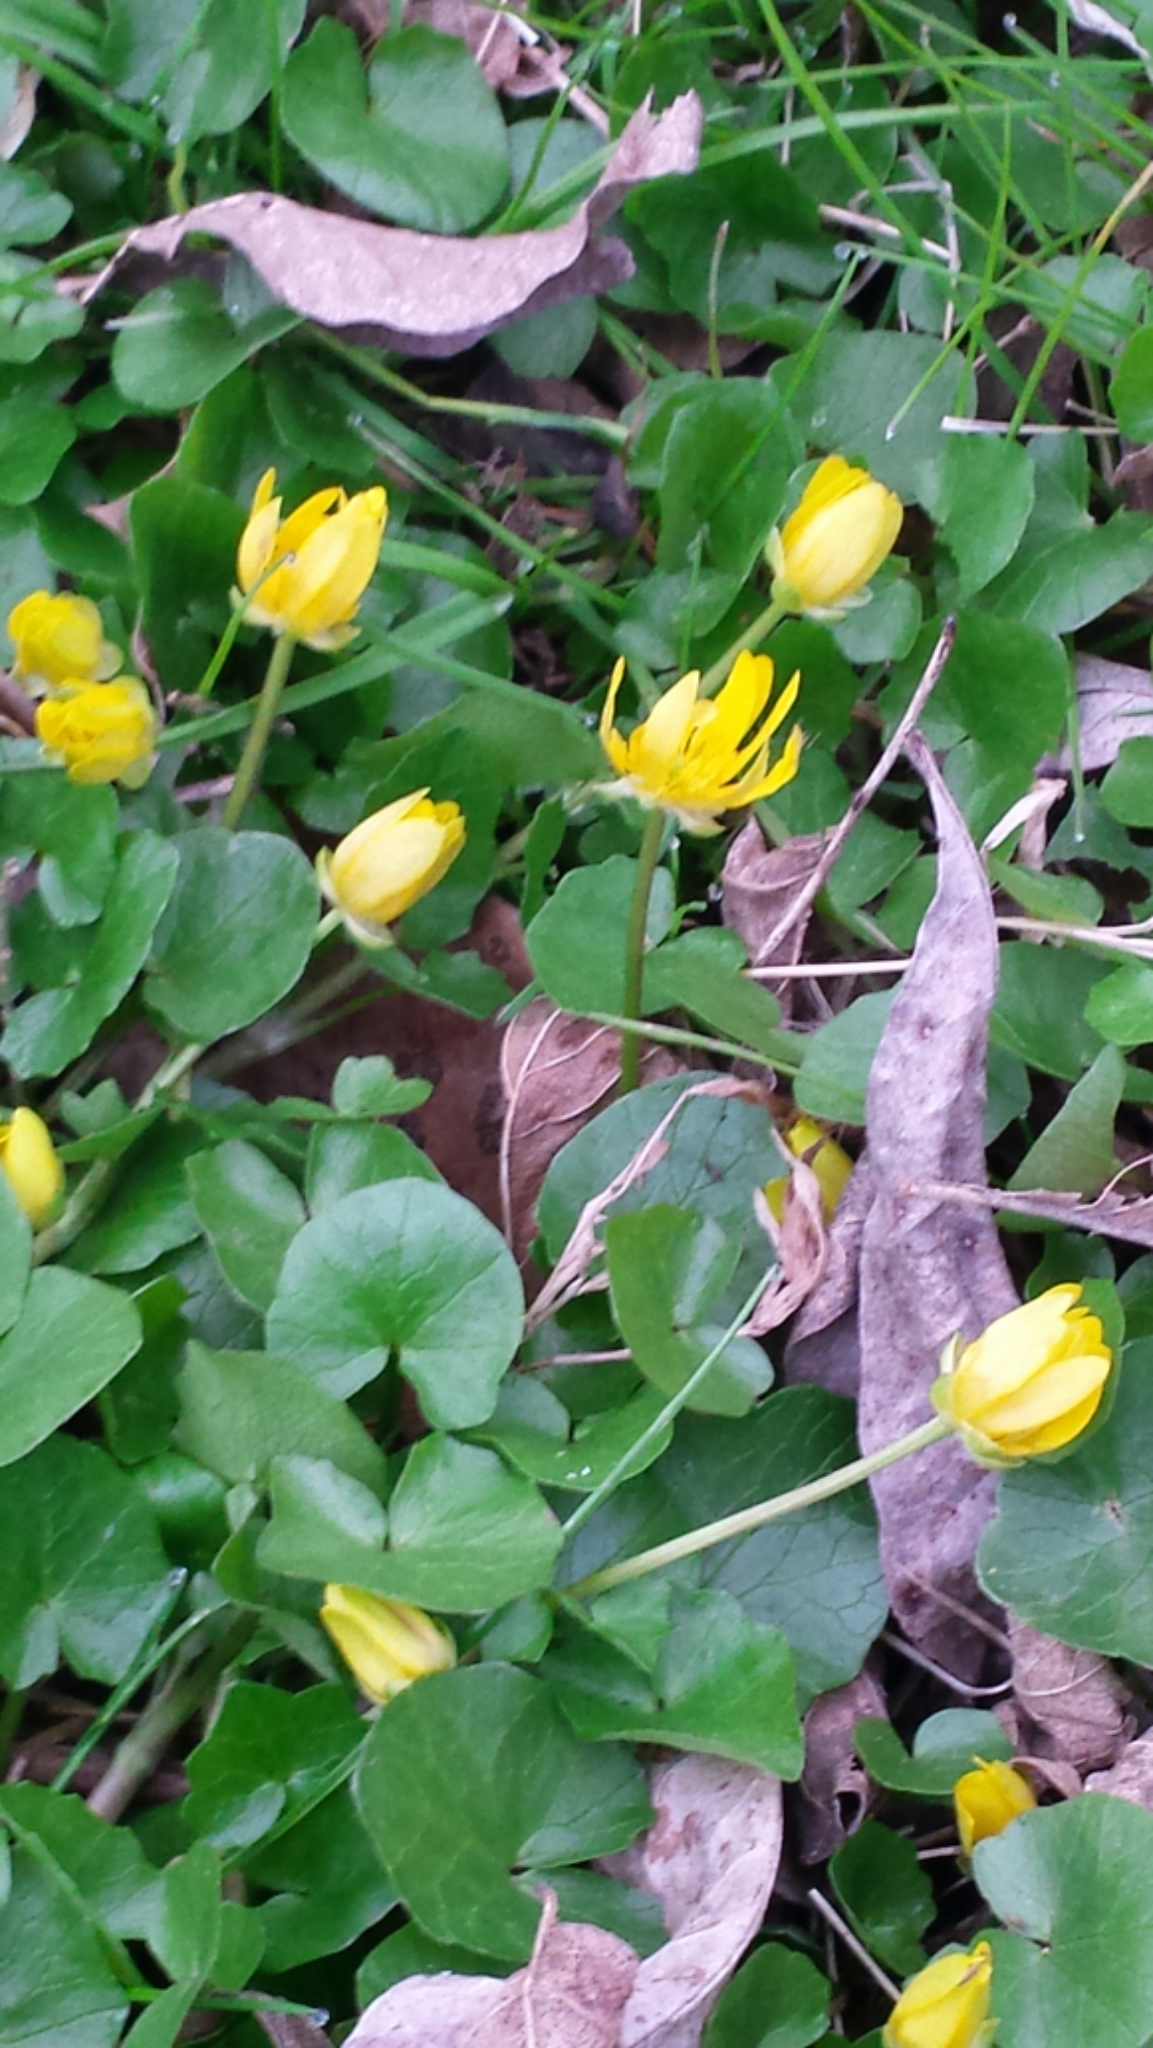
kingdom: Plantae
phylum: Tracheophyta
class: Magnoliopsida
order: Ranunculales
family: Ranunculaceae
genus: Ficaria
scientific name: Ficaria verna
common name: Lesser celandine
